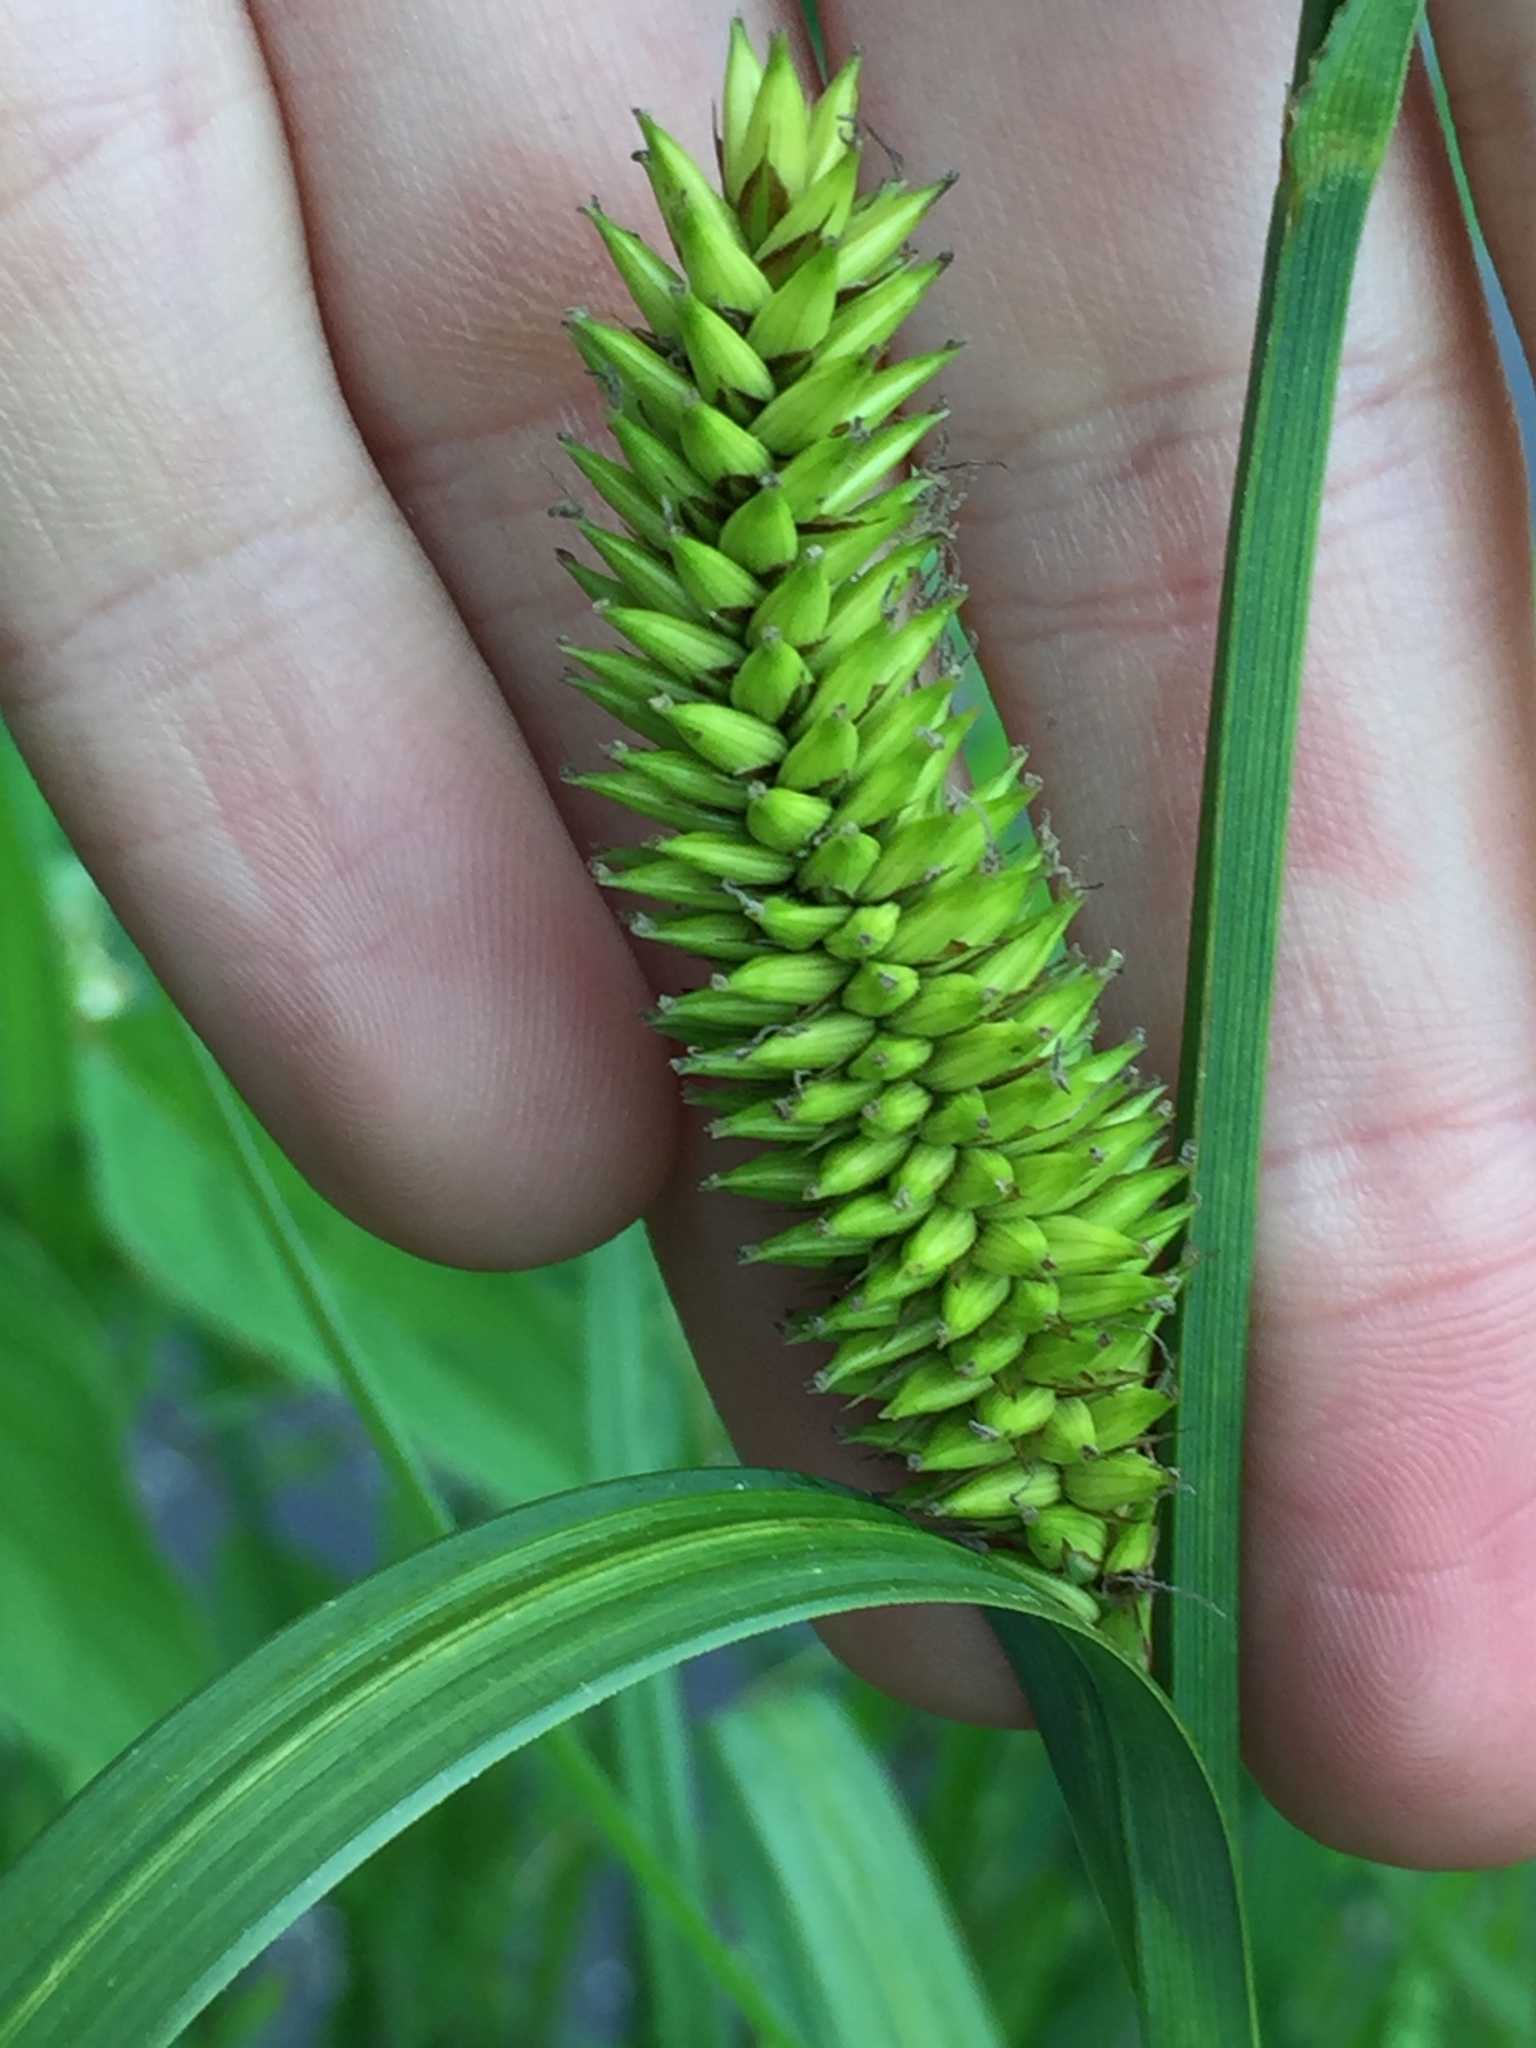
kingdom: Plantae
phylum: Tracheophyta
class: Liliopsida
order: Poales
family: Cyperaceae
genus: Carex
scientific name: Carex lacustris
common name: Common lake sedge
